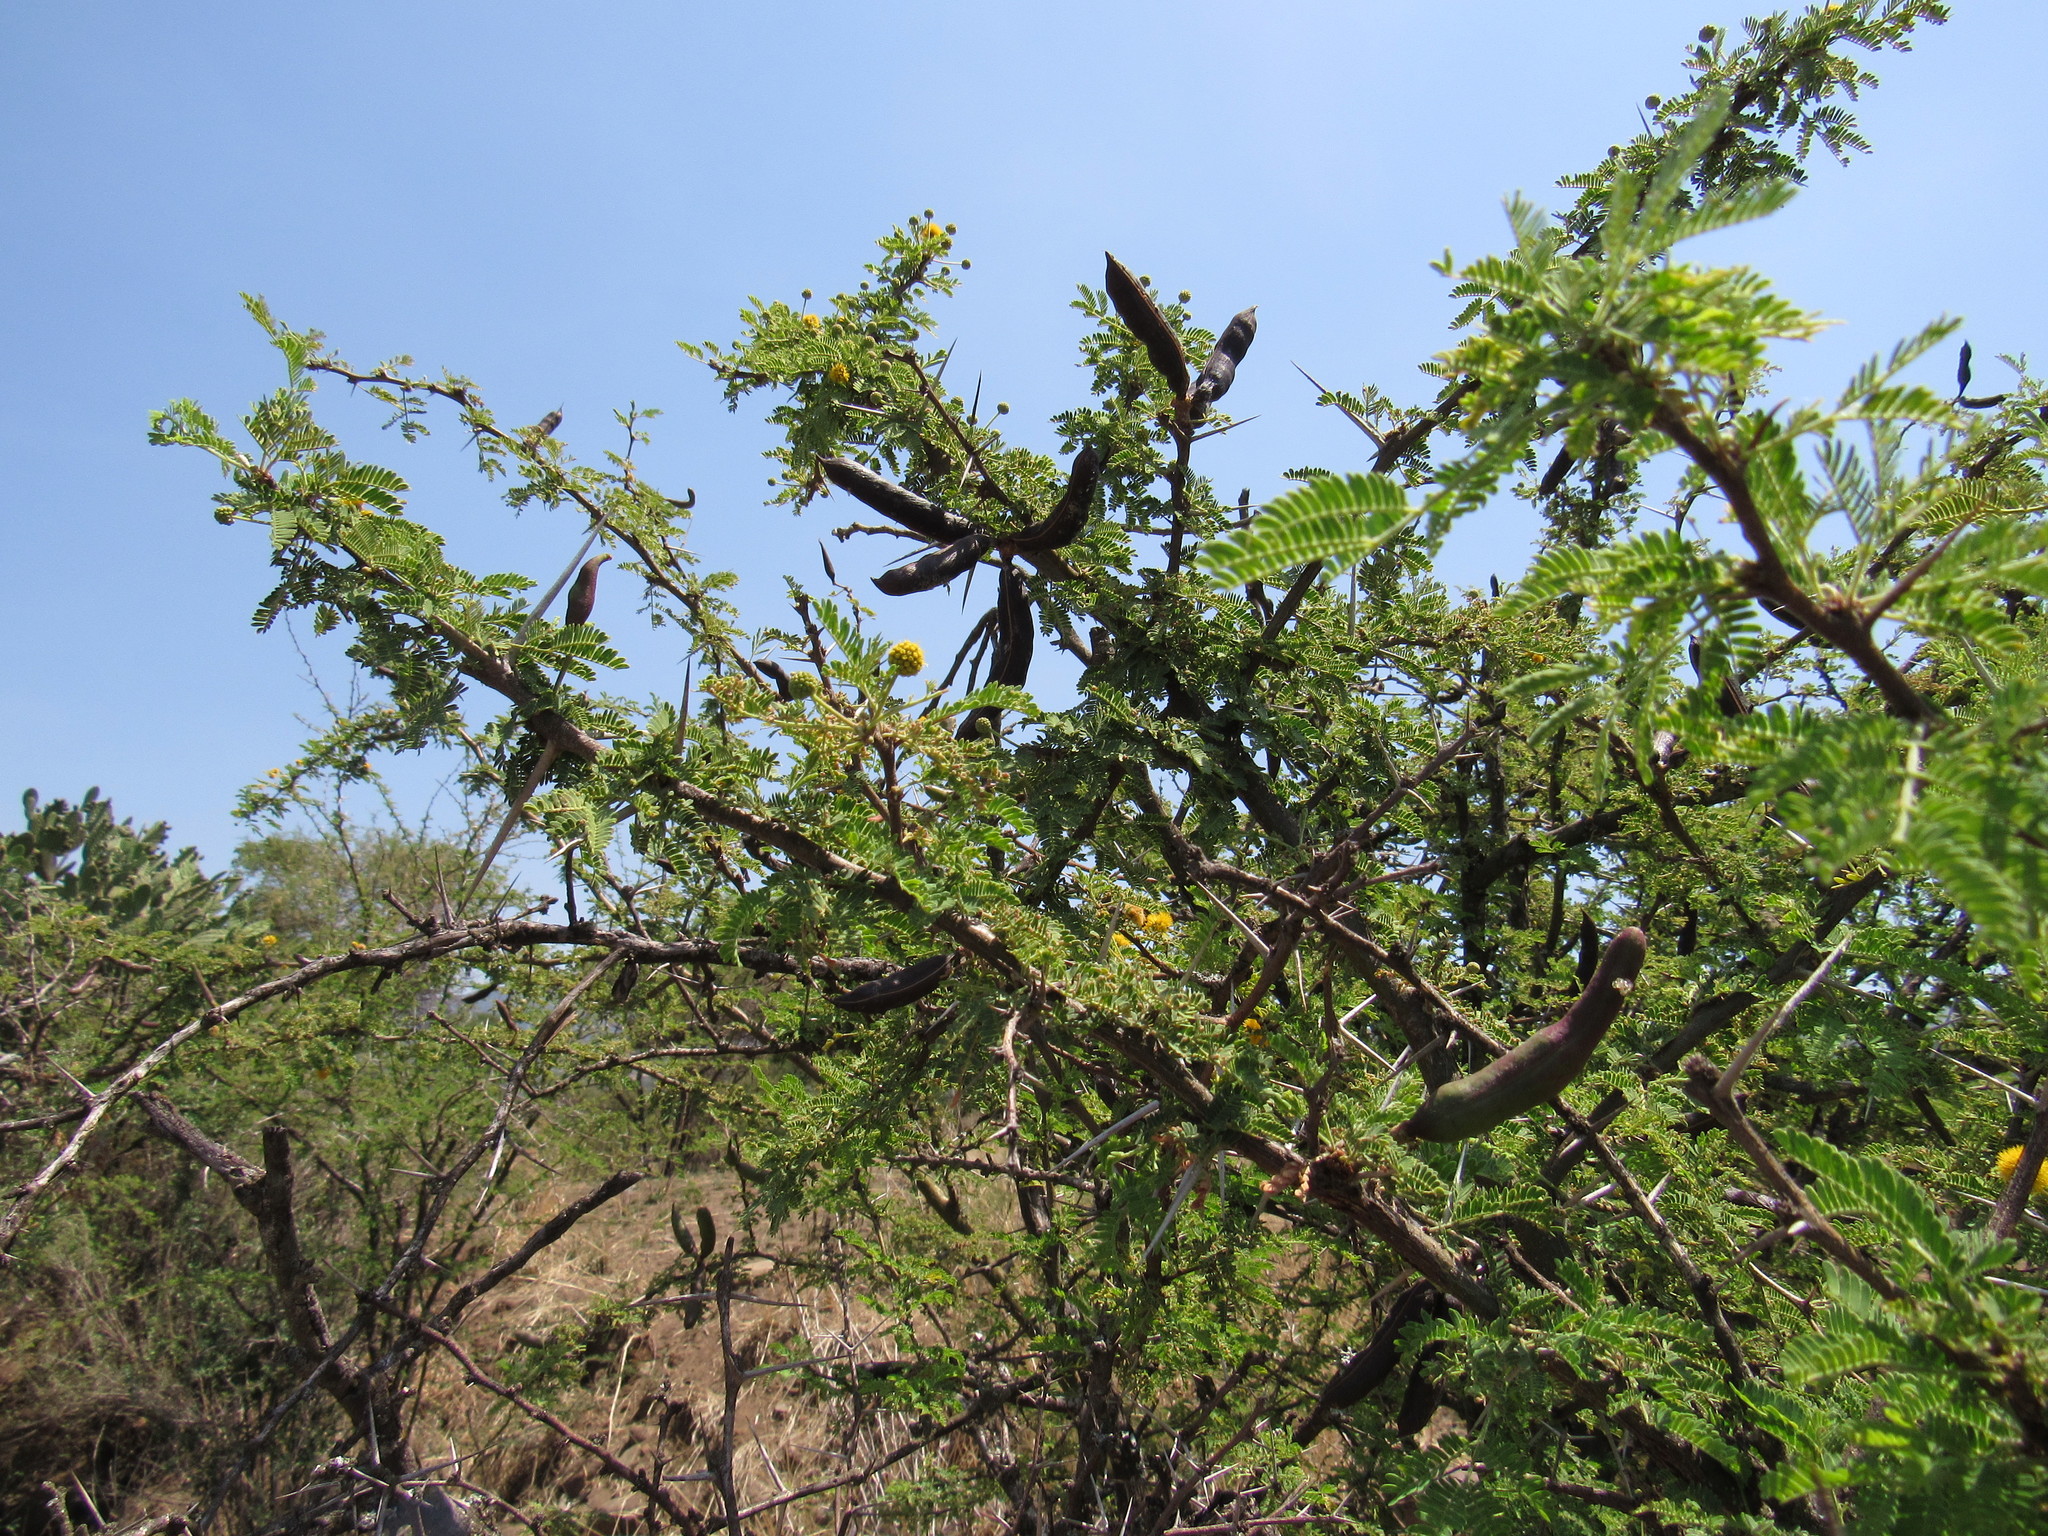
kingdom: Plantae
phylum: Tracheophyta
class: Magnoliopsida
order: Fabales
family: Fabaceae
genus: Vachellia
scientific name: Vachellia farnesiana
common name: Sweet acacia
